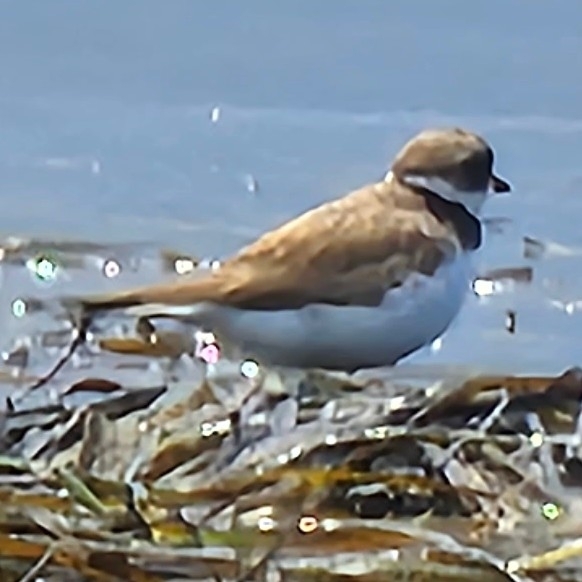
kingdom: Animalia
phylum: Chordata
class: Aves
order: Charadriiformes
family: Charadriidae
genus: Charadrius
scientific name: Charadrius semipalmatus
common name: Semipalmated plover
